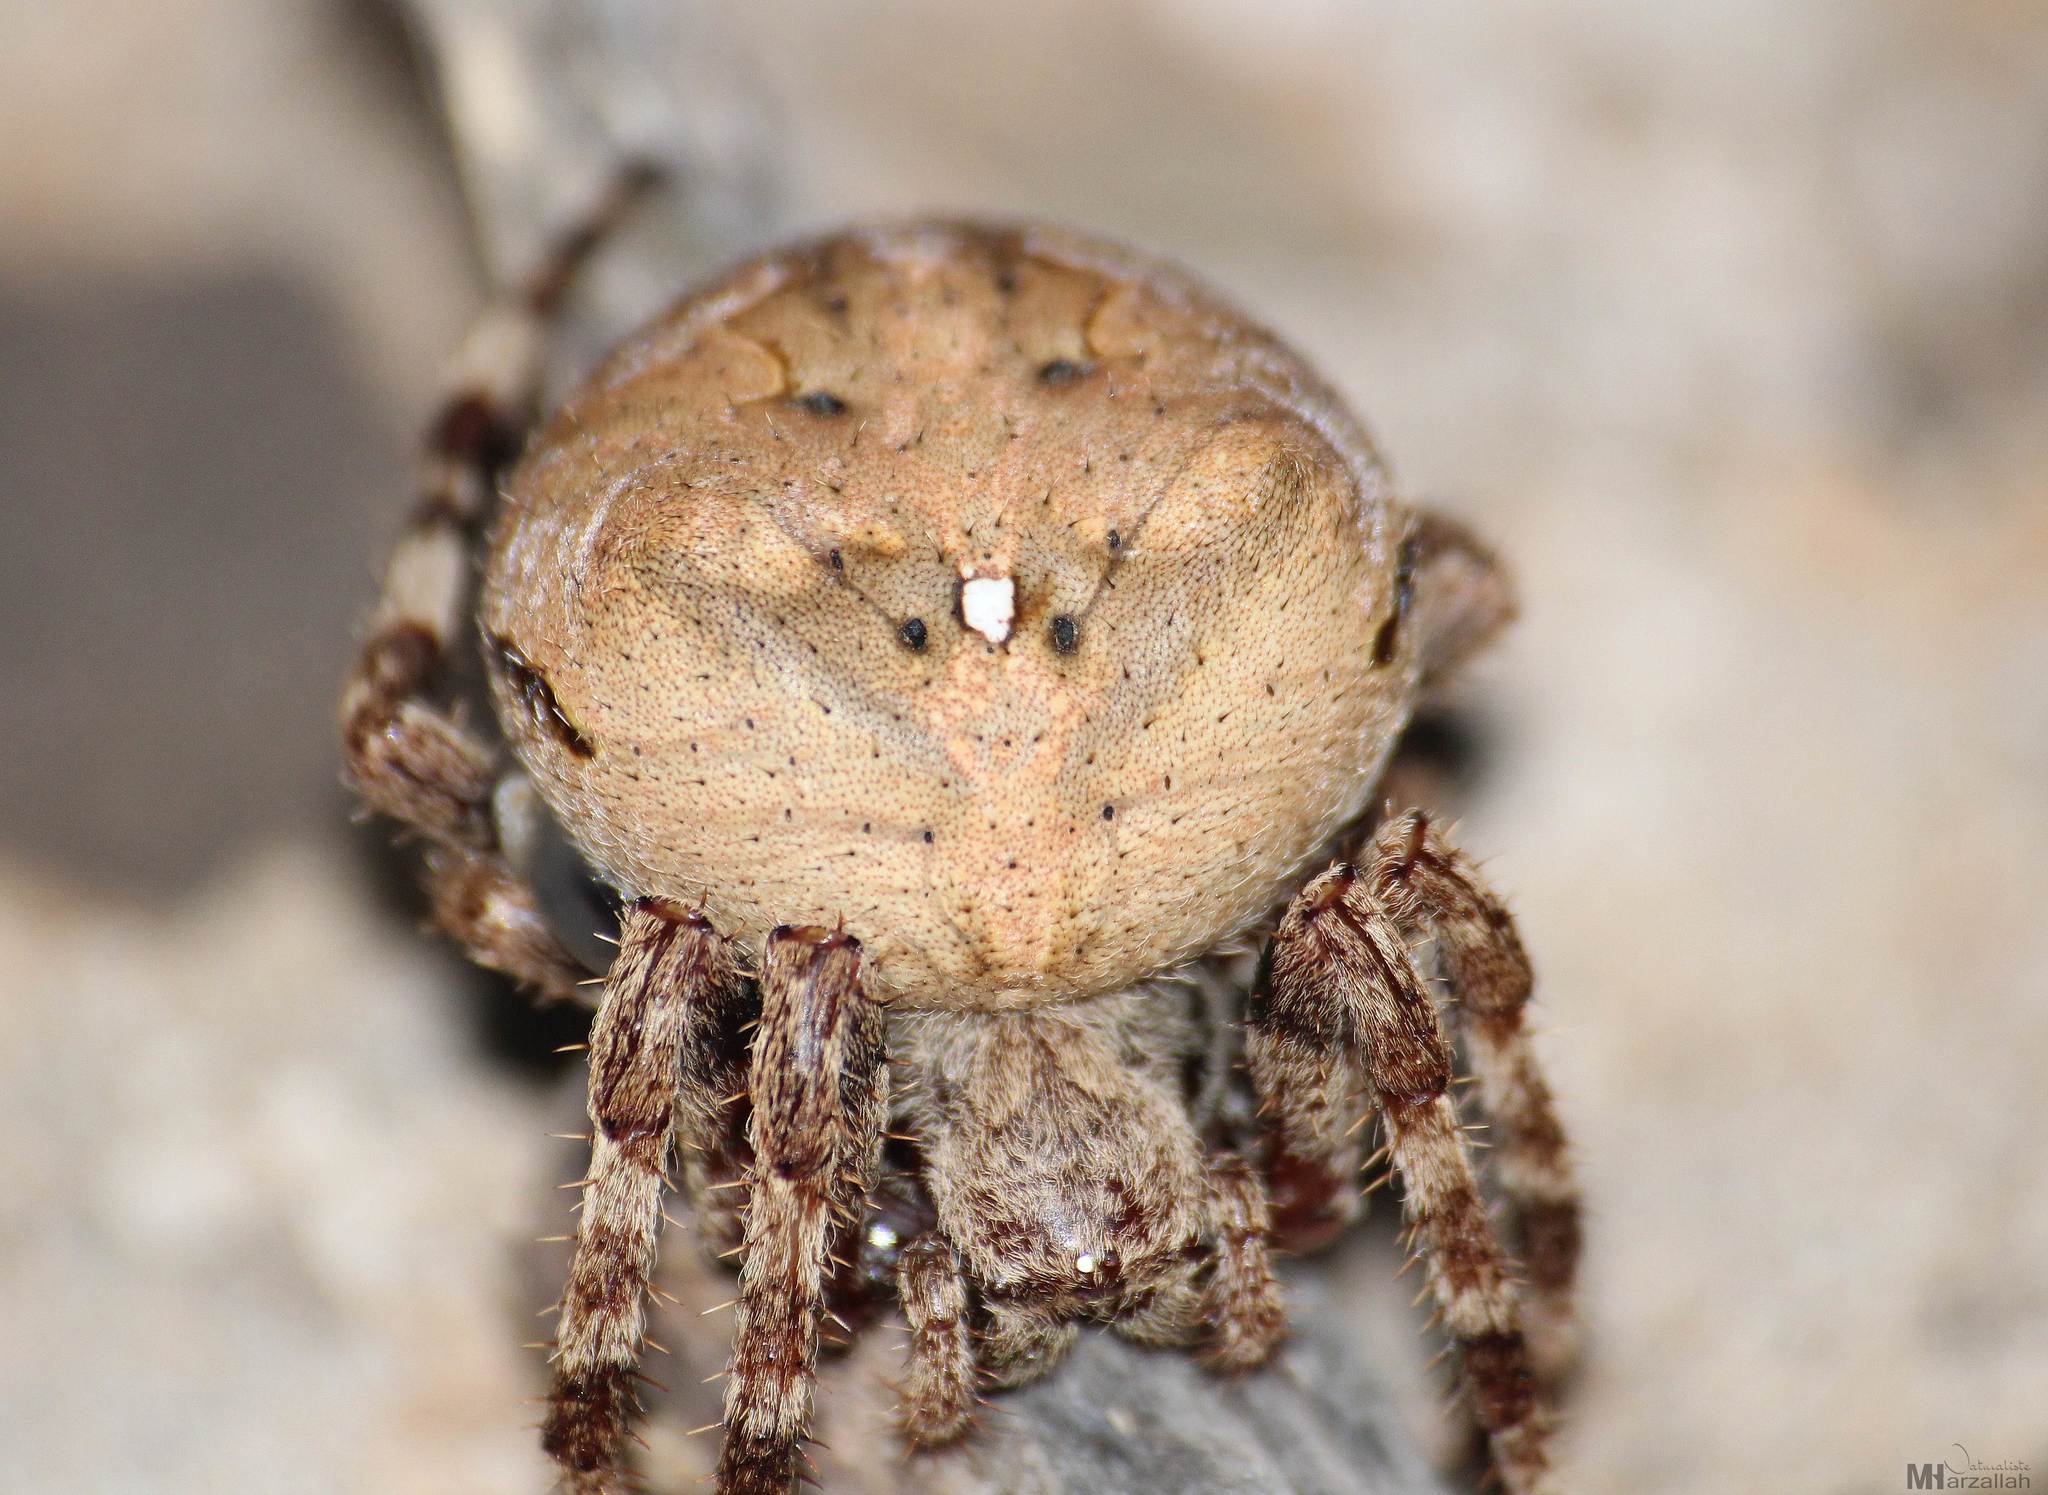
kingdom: Animalia
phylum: Arthropoda
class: Arachnida
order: Araneae
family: Araneidae
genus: Araneus
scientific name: Araneus angulatus
